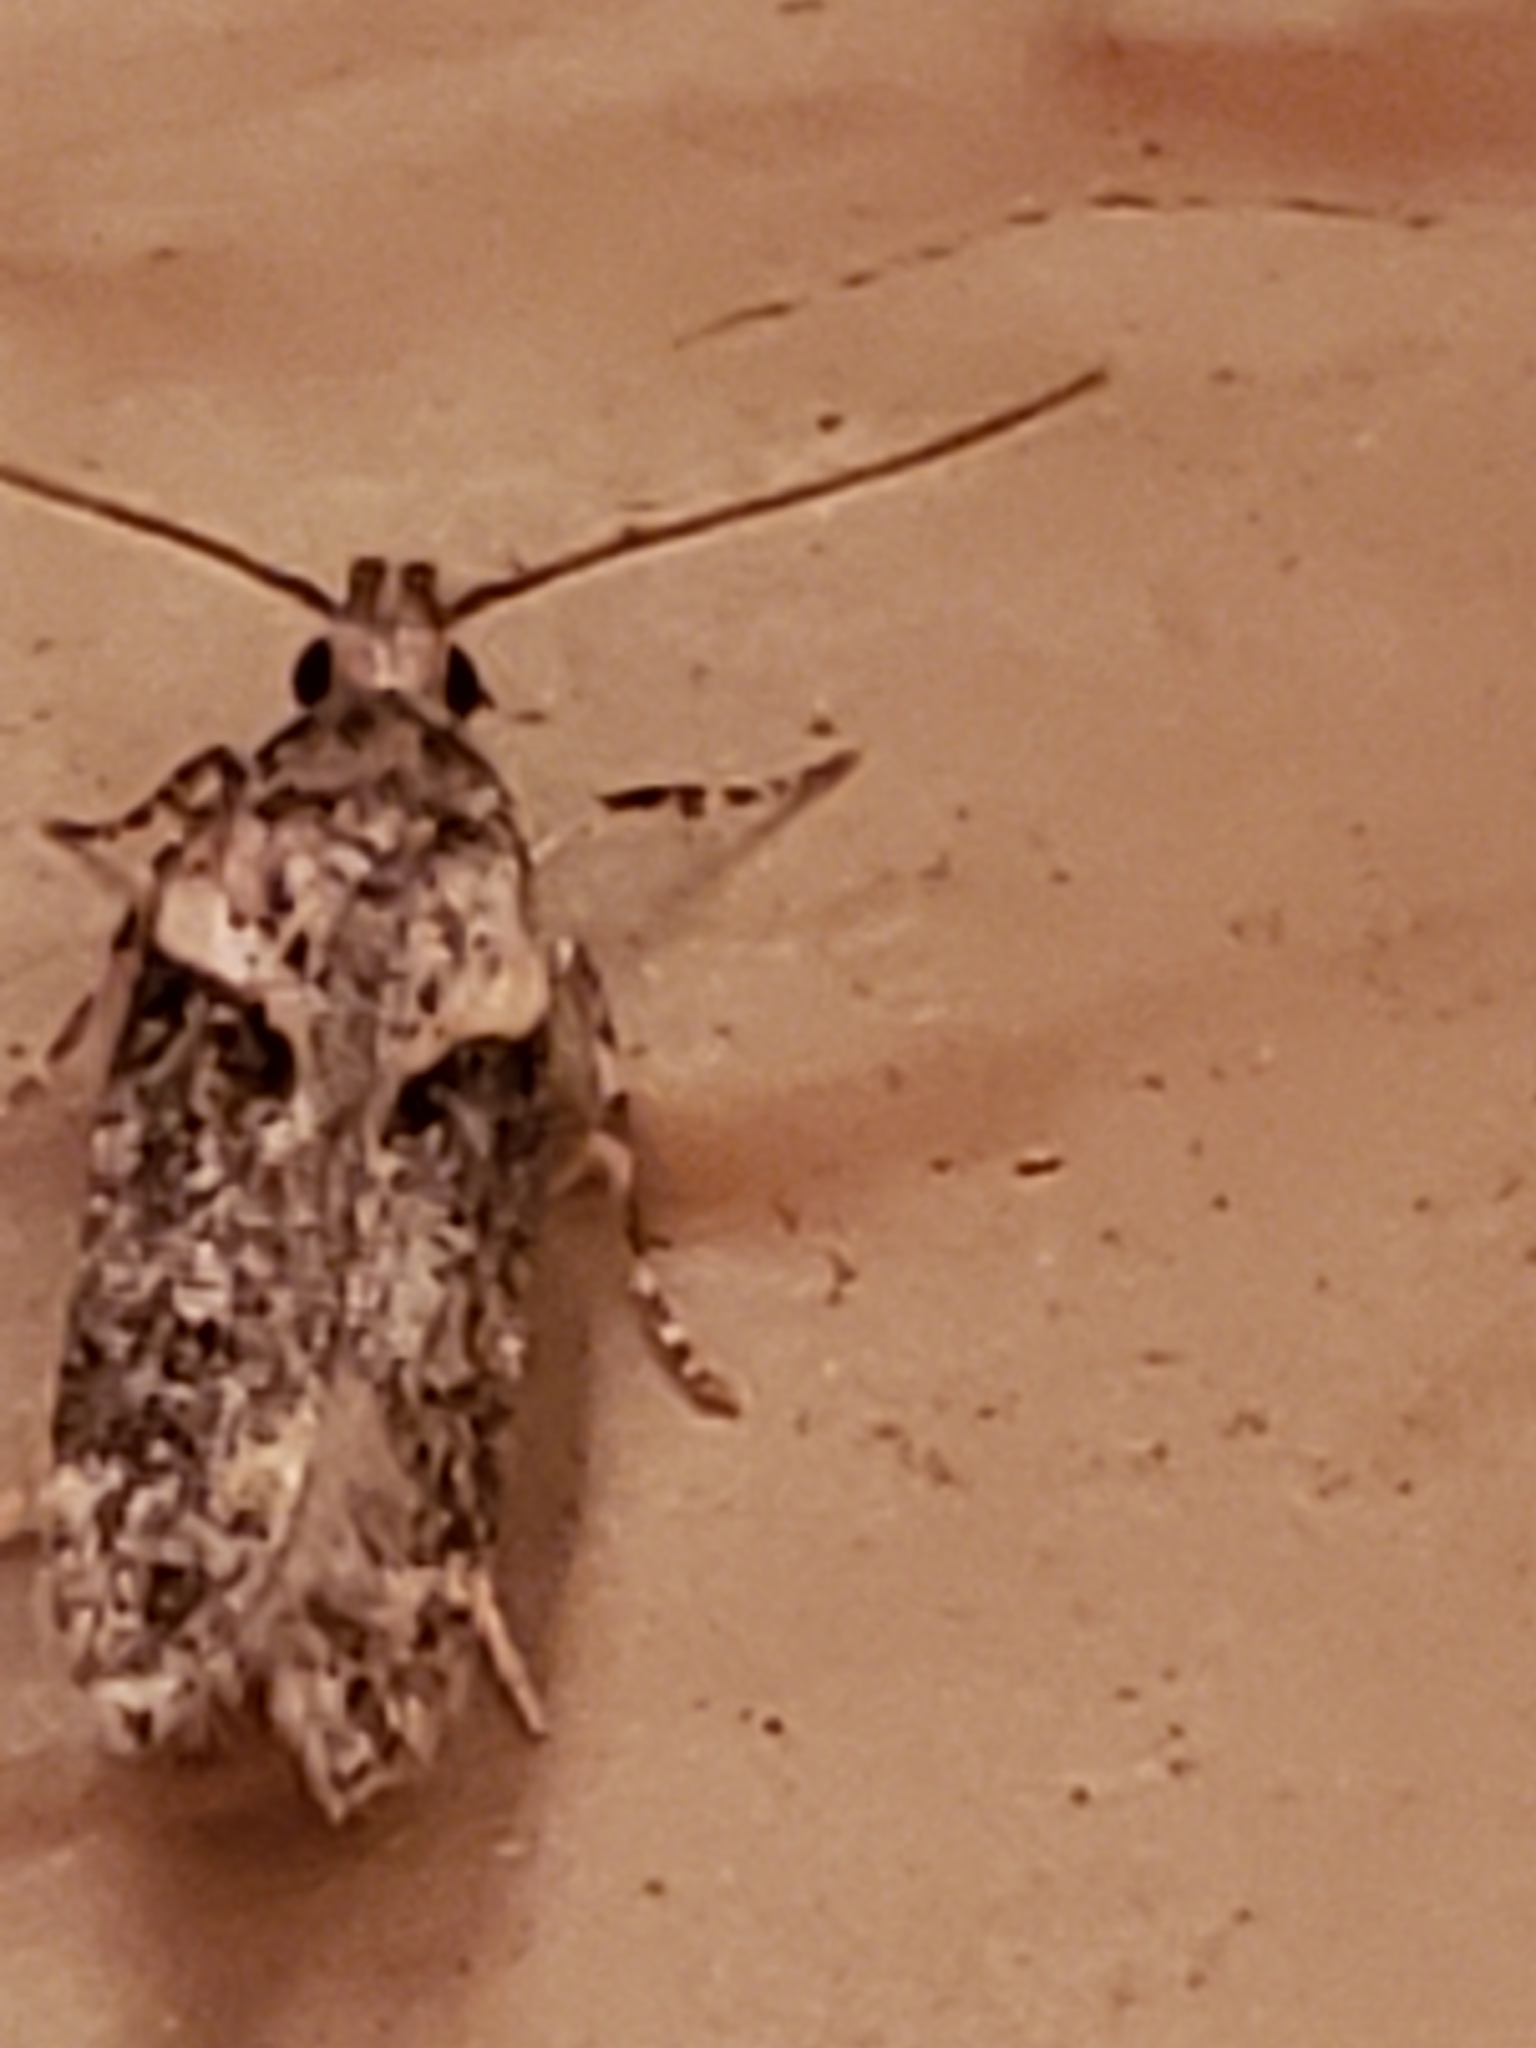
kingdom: Animalia
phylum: Arthropoda
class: Insecta
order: Lepidoptera
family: Gelechiidae
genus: Chionodes
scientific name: Chionodes mediofuscella
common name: Black-smudged chionodes moth
